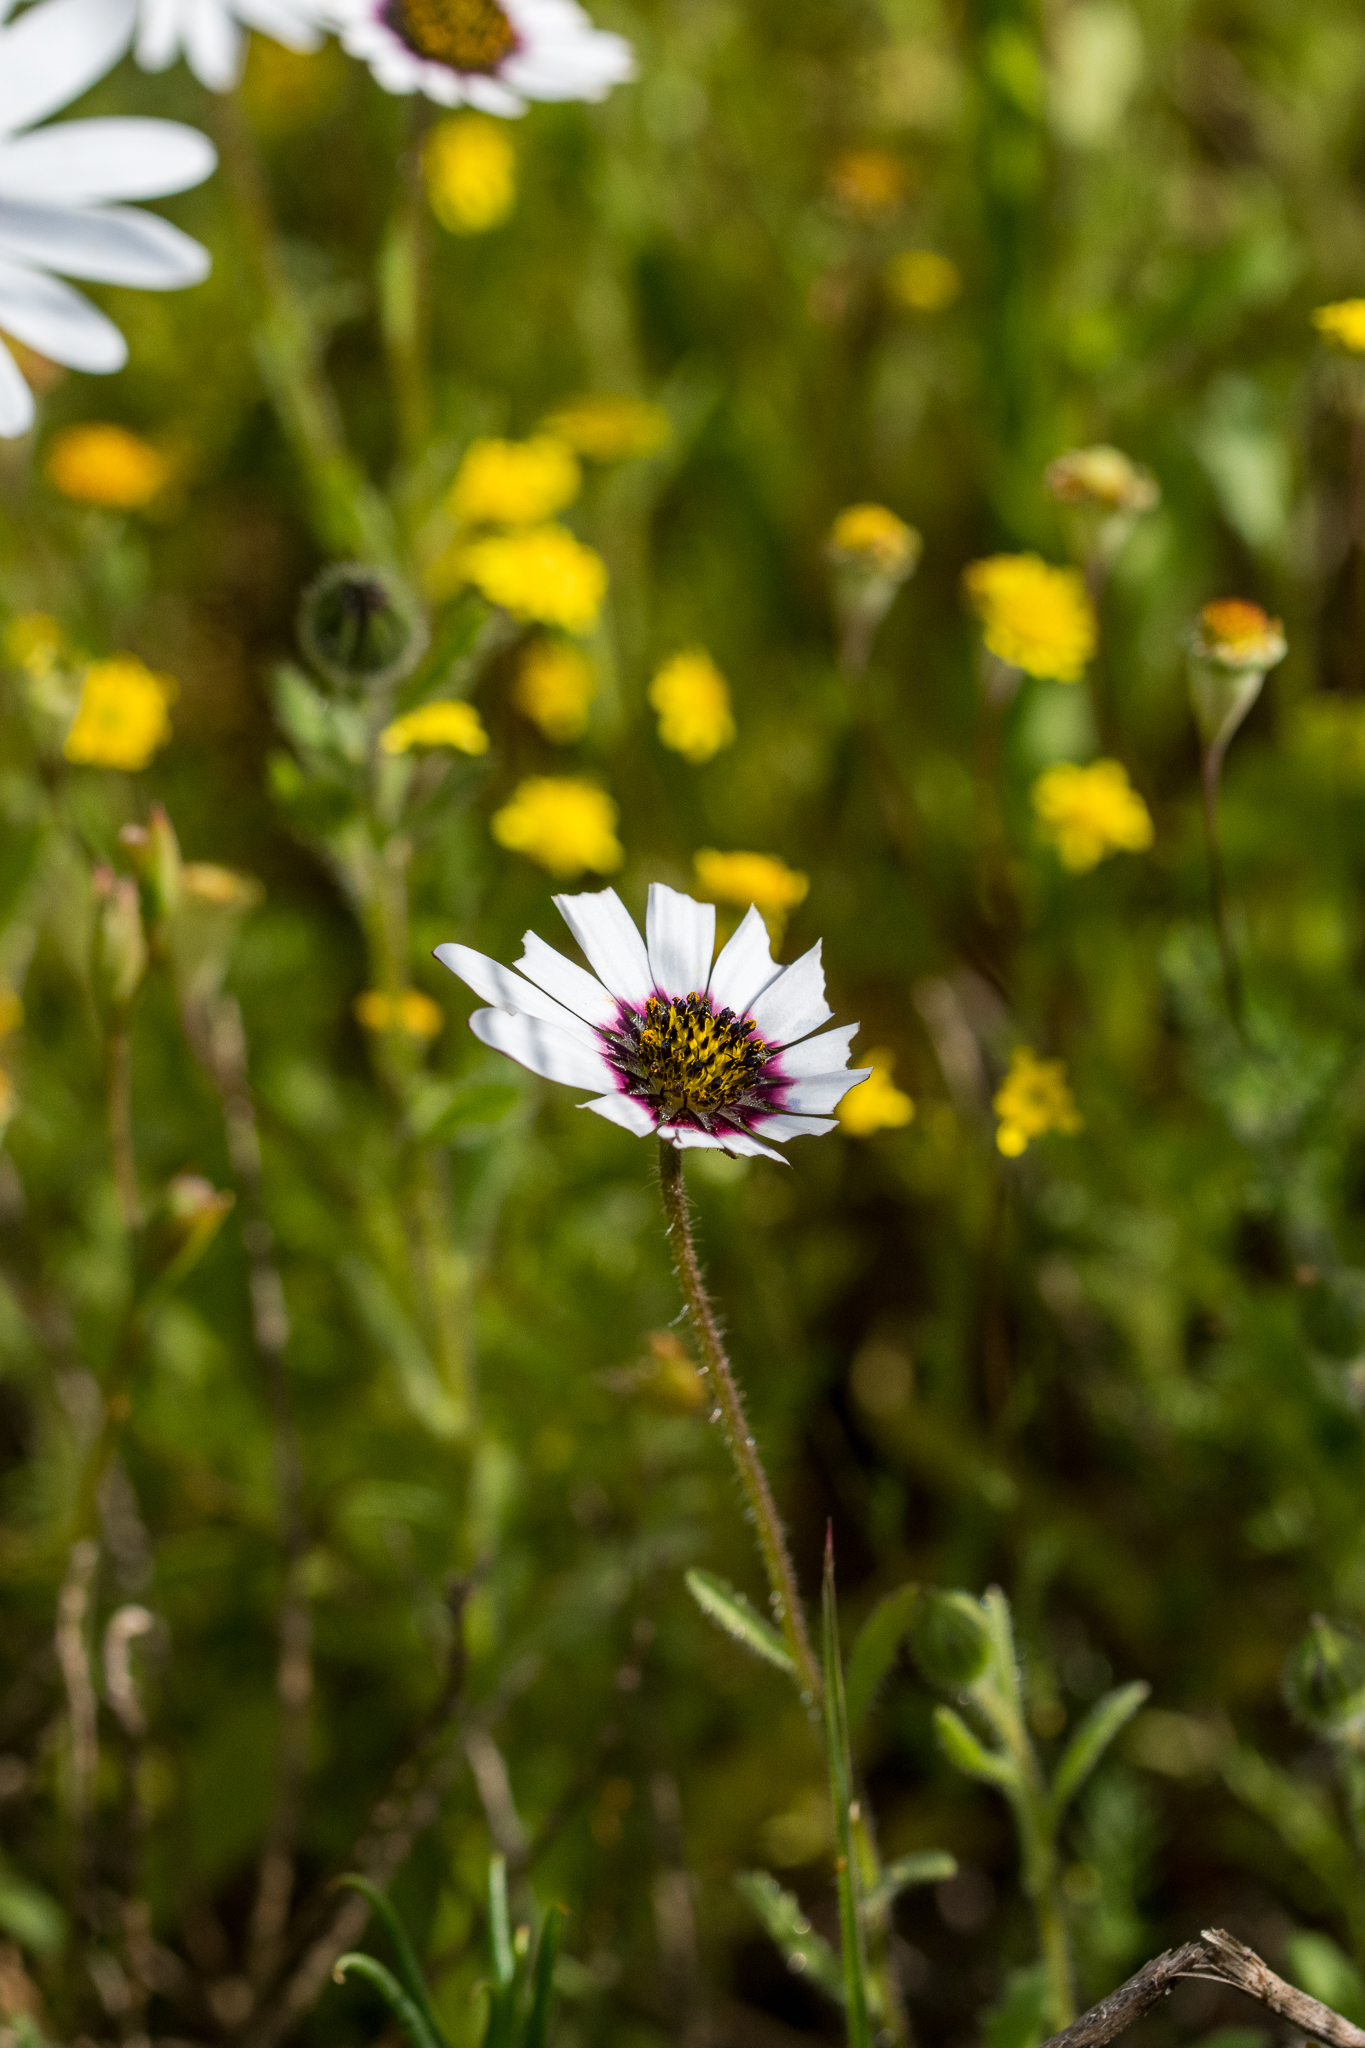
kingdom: Plantae
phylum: Tracheophyta
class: Magnoliopsida
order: Asterales
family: Asteraceae
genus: Dimorphotheca
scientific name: Dimorphotheca pluvialis
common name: Weather prophet
